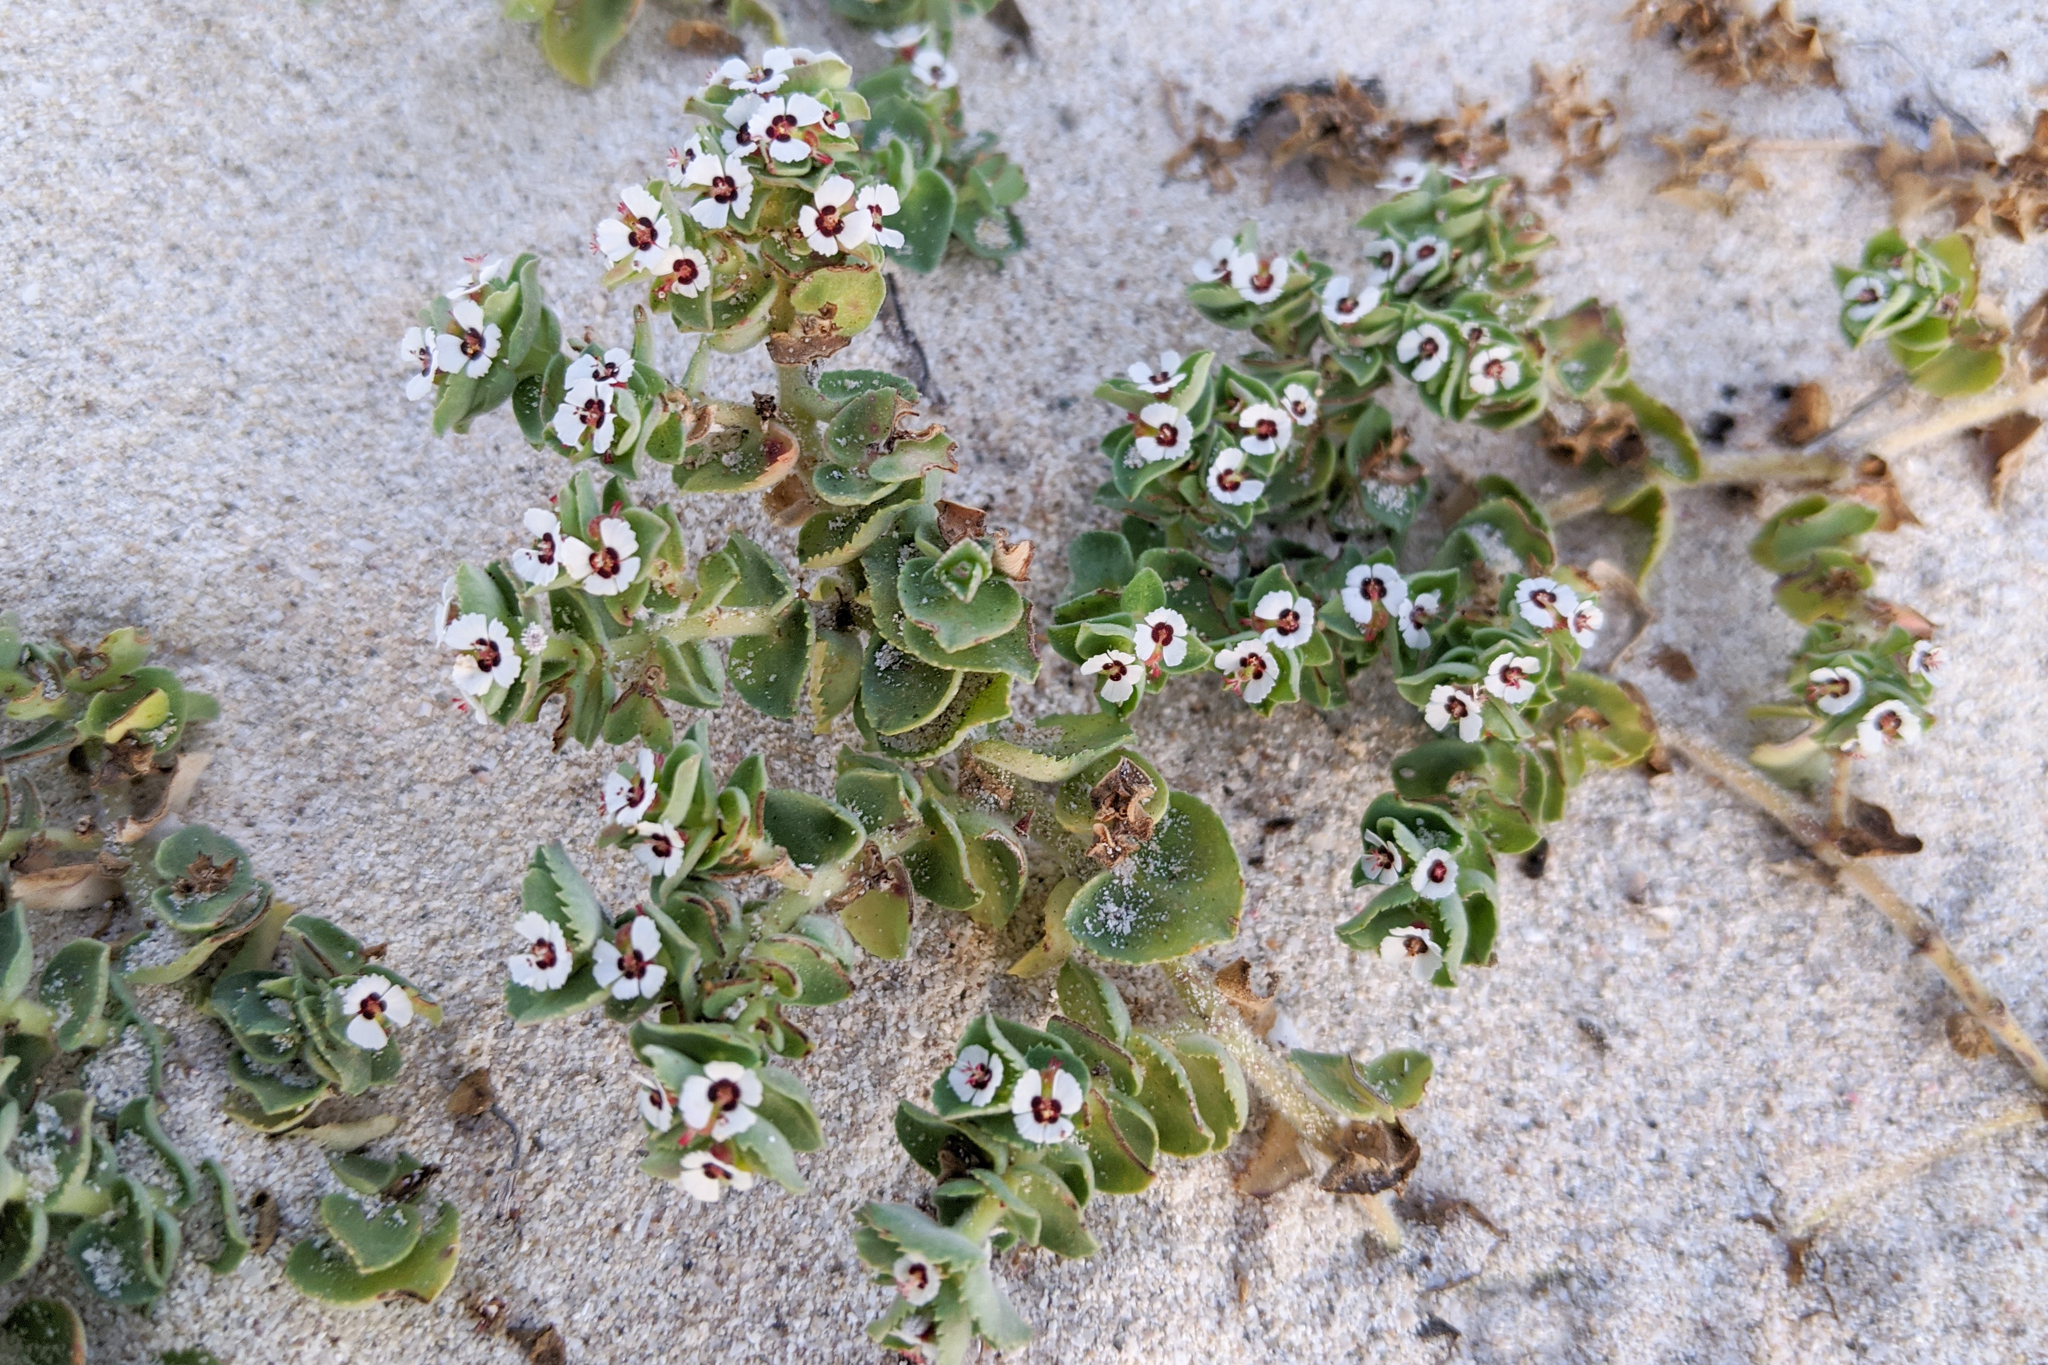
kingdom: Plantae
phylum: Tracheophyta
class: Magnoliopsida
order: Malpighiales
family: Euphorbiaceae
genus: Euphorbia
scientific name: Euphorbia leucophylla
